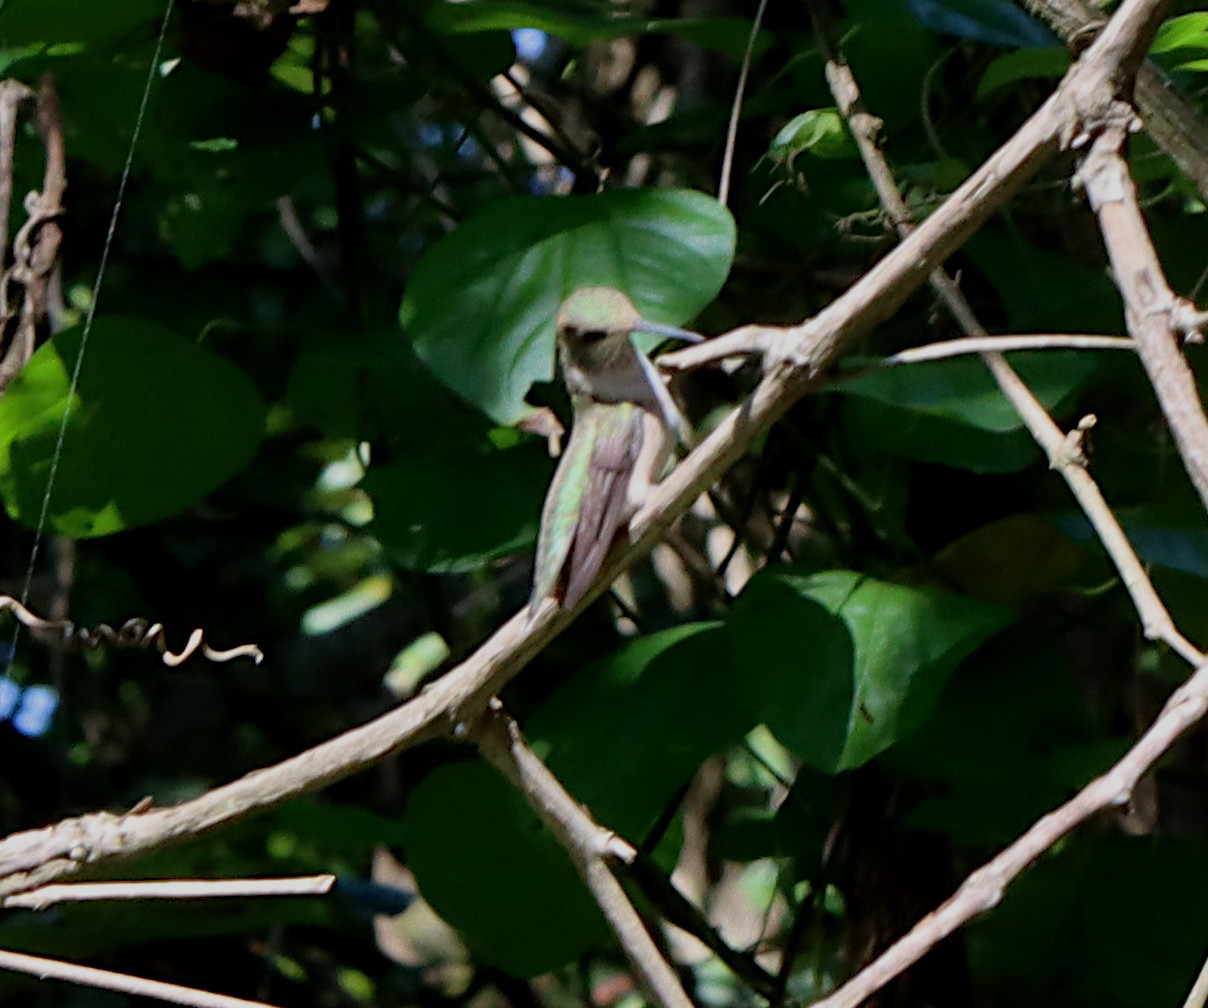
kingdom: Animalia
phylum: Chordata
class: Aves
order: Apodiformes
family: Trochilidae
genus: Archilochus
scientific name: Archilochus colubris
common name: Ruby-throated hummingbird
